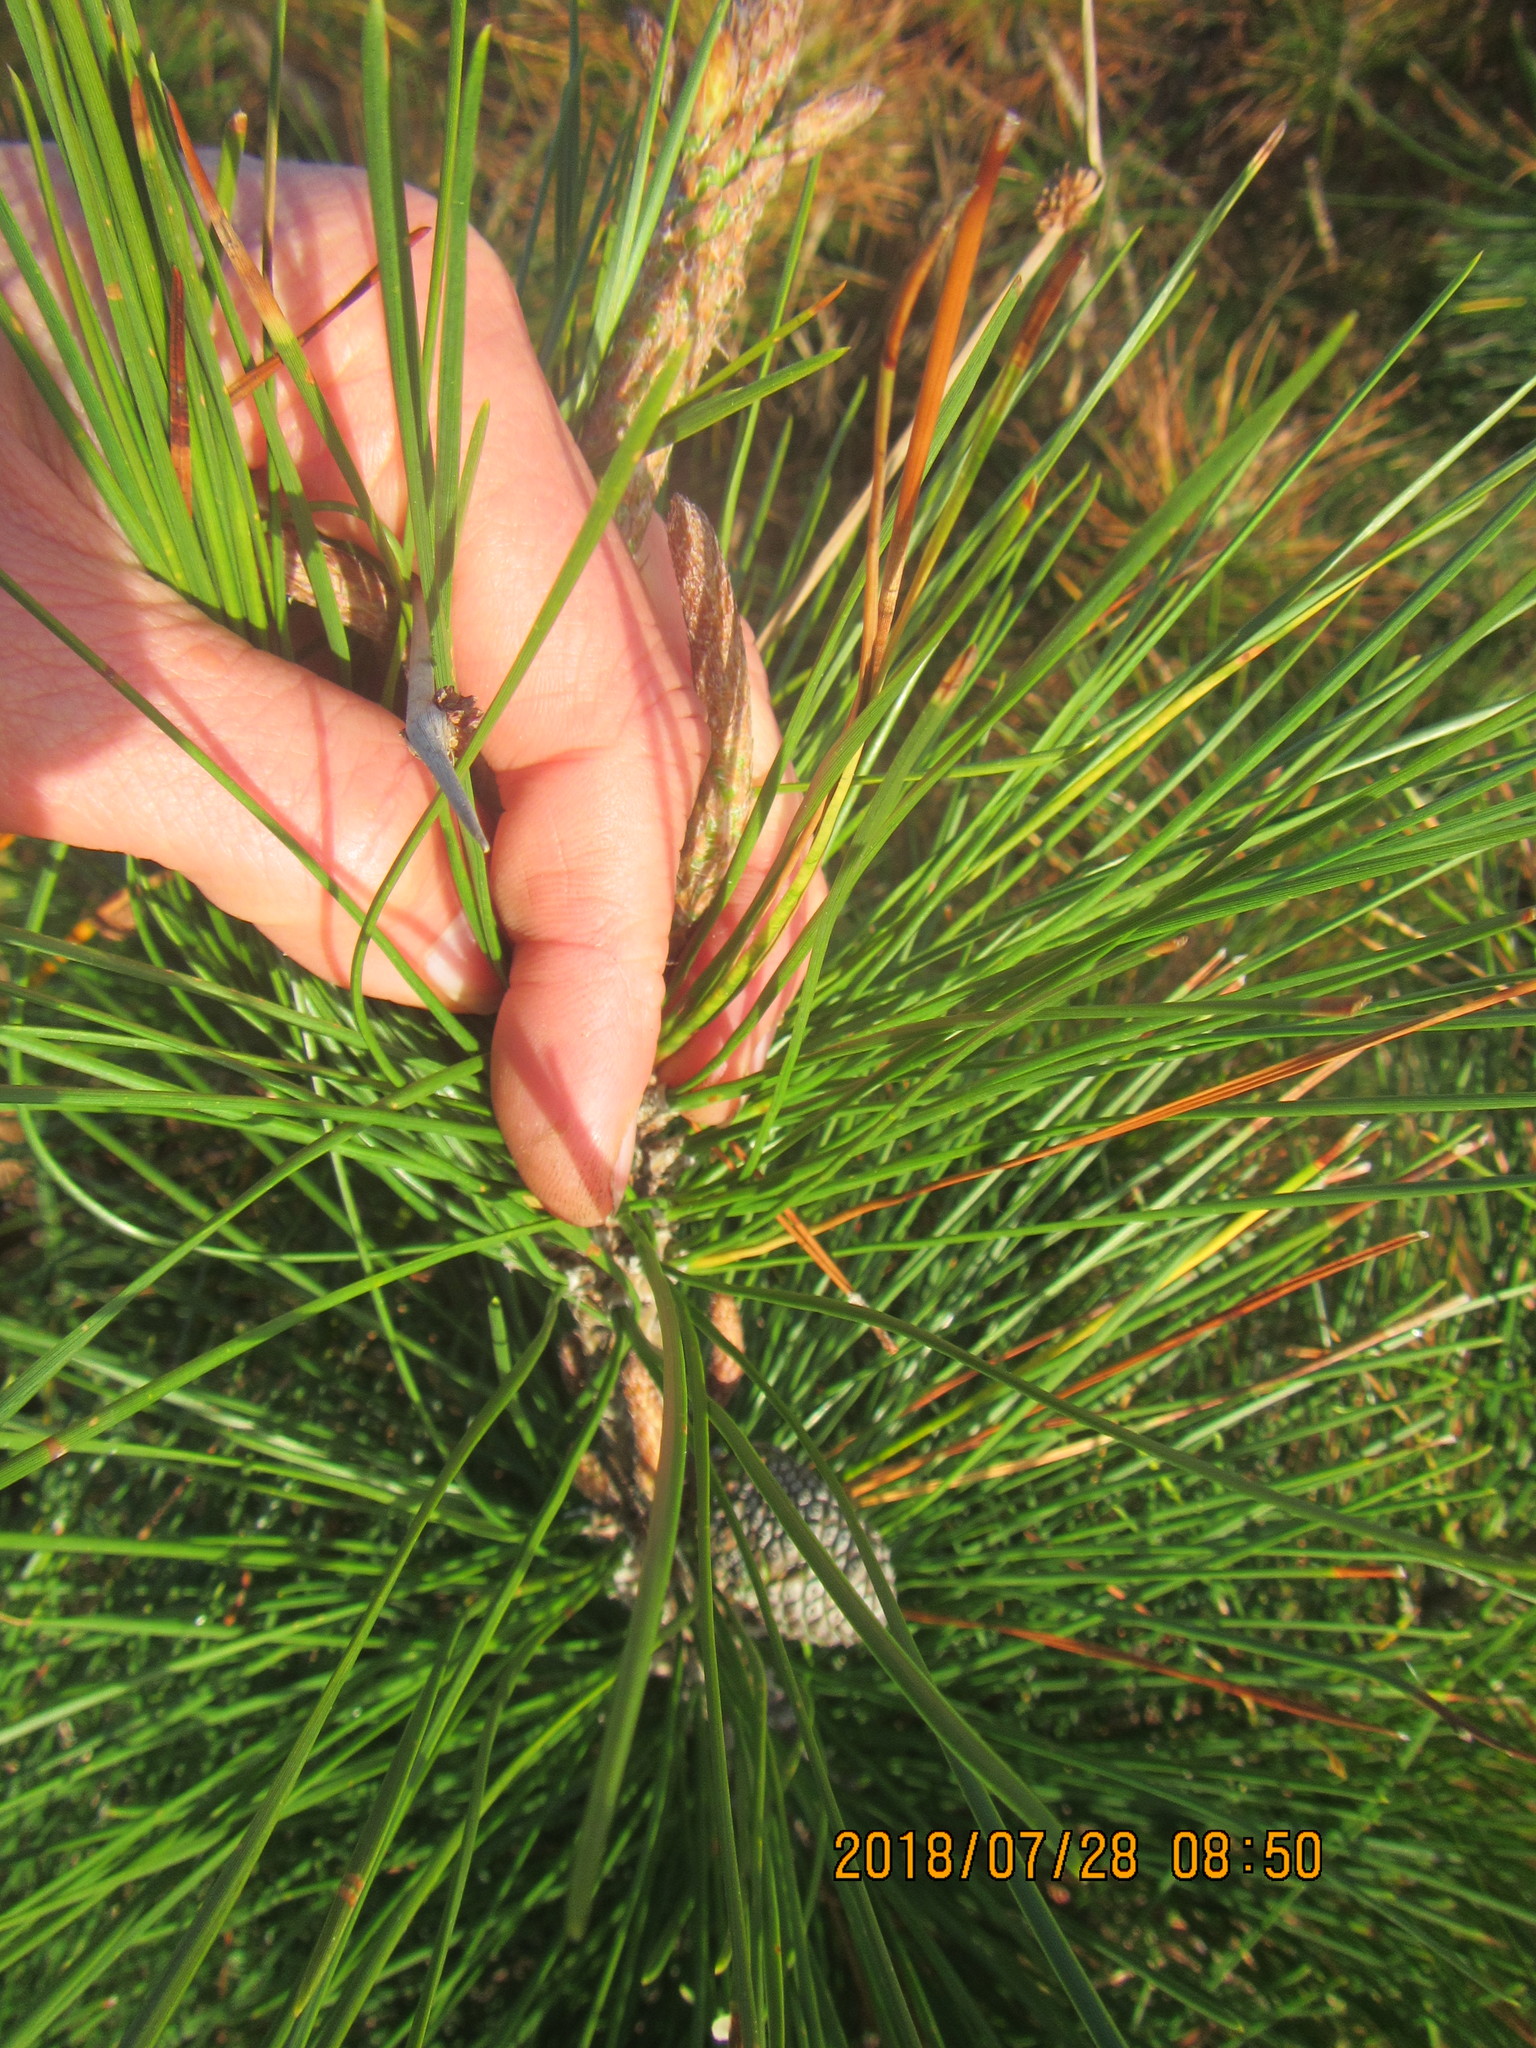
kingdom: Plantae
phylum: Tracheophyta
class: Pinopsida
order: Pinales
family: Pinaceae
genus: Pinus
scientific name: Pinus radiata
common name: Monterey pine
